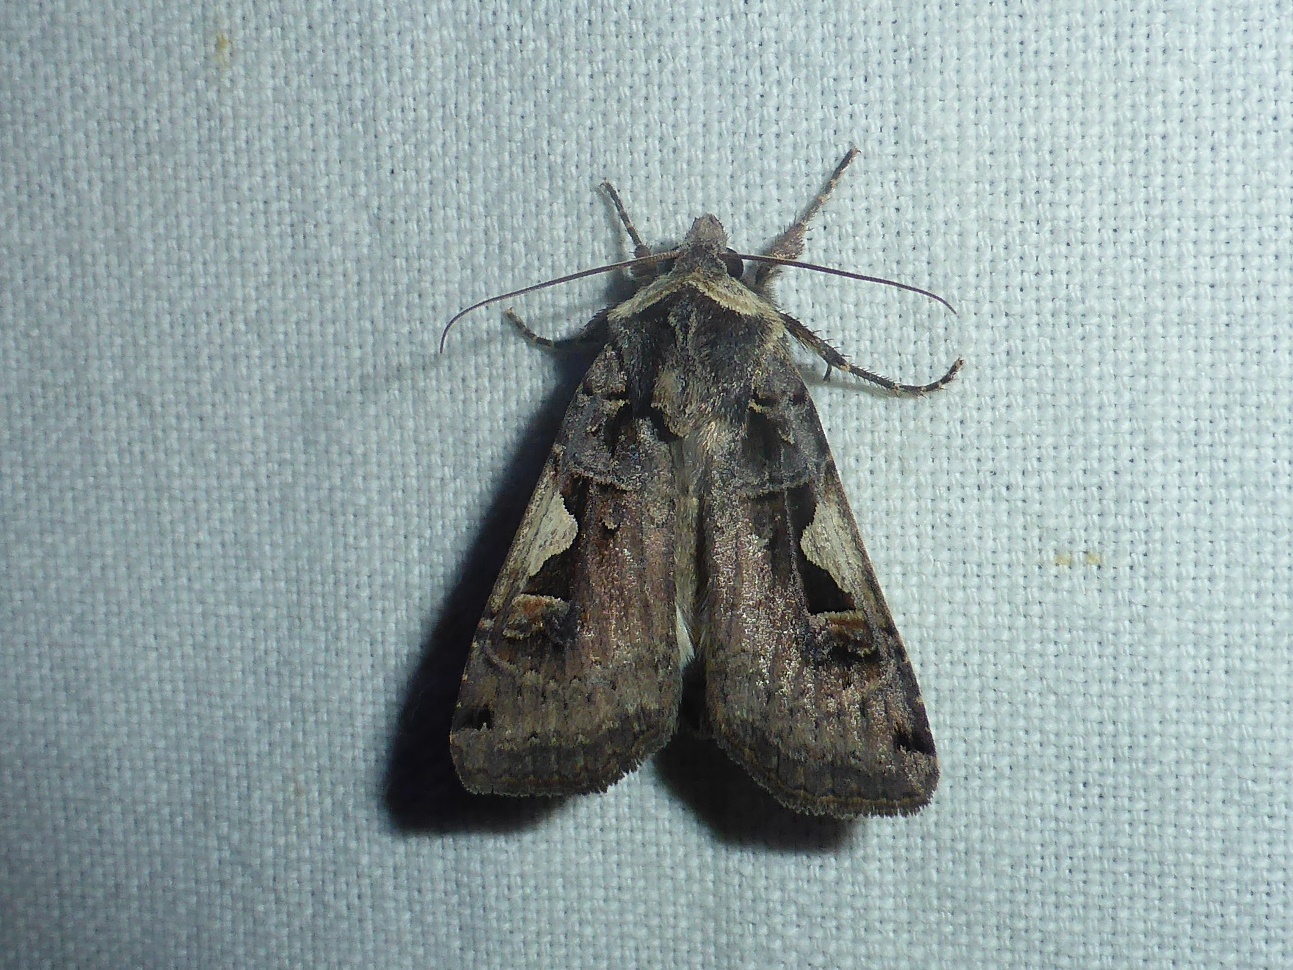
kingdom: Animalia
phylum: Arthropoda
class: Insecta
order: Lepidoptera
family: Noctuidae
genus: Xestia
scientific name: Xestia c-nigrum
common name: Setaceous hebrew character
